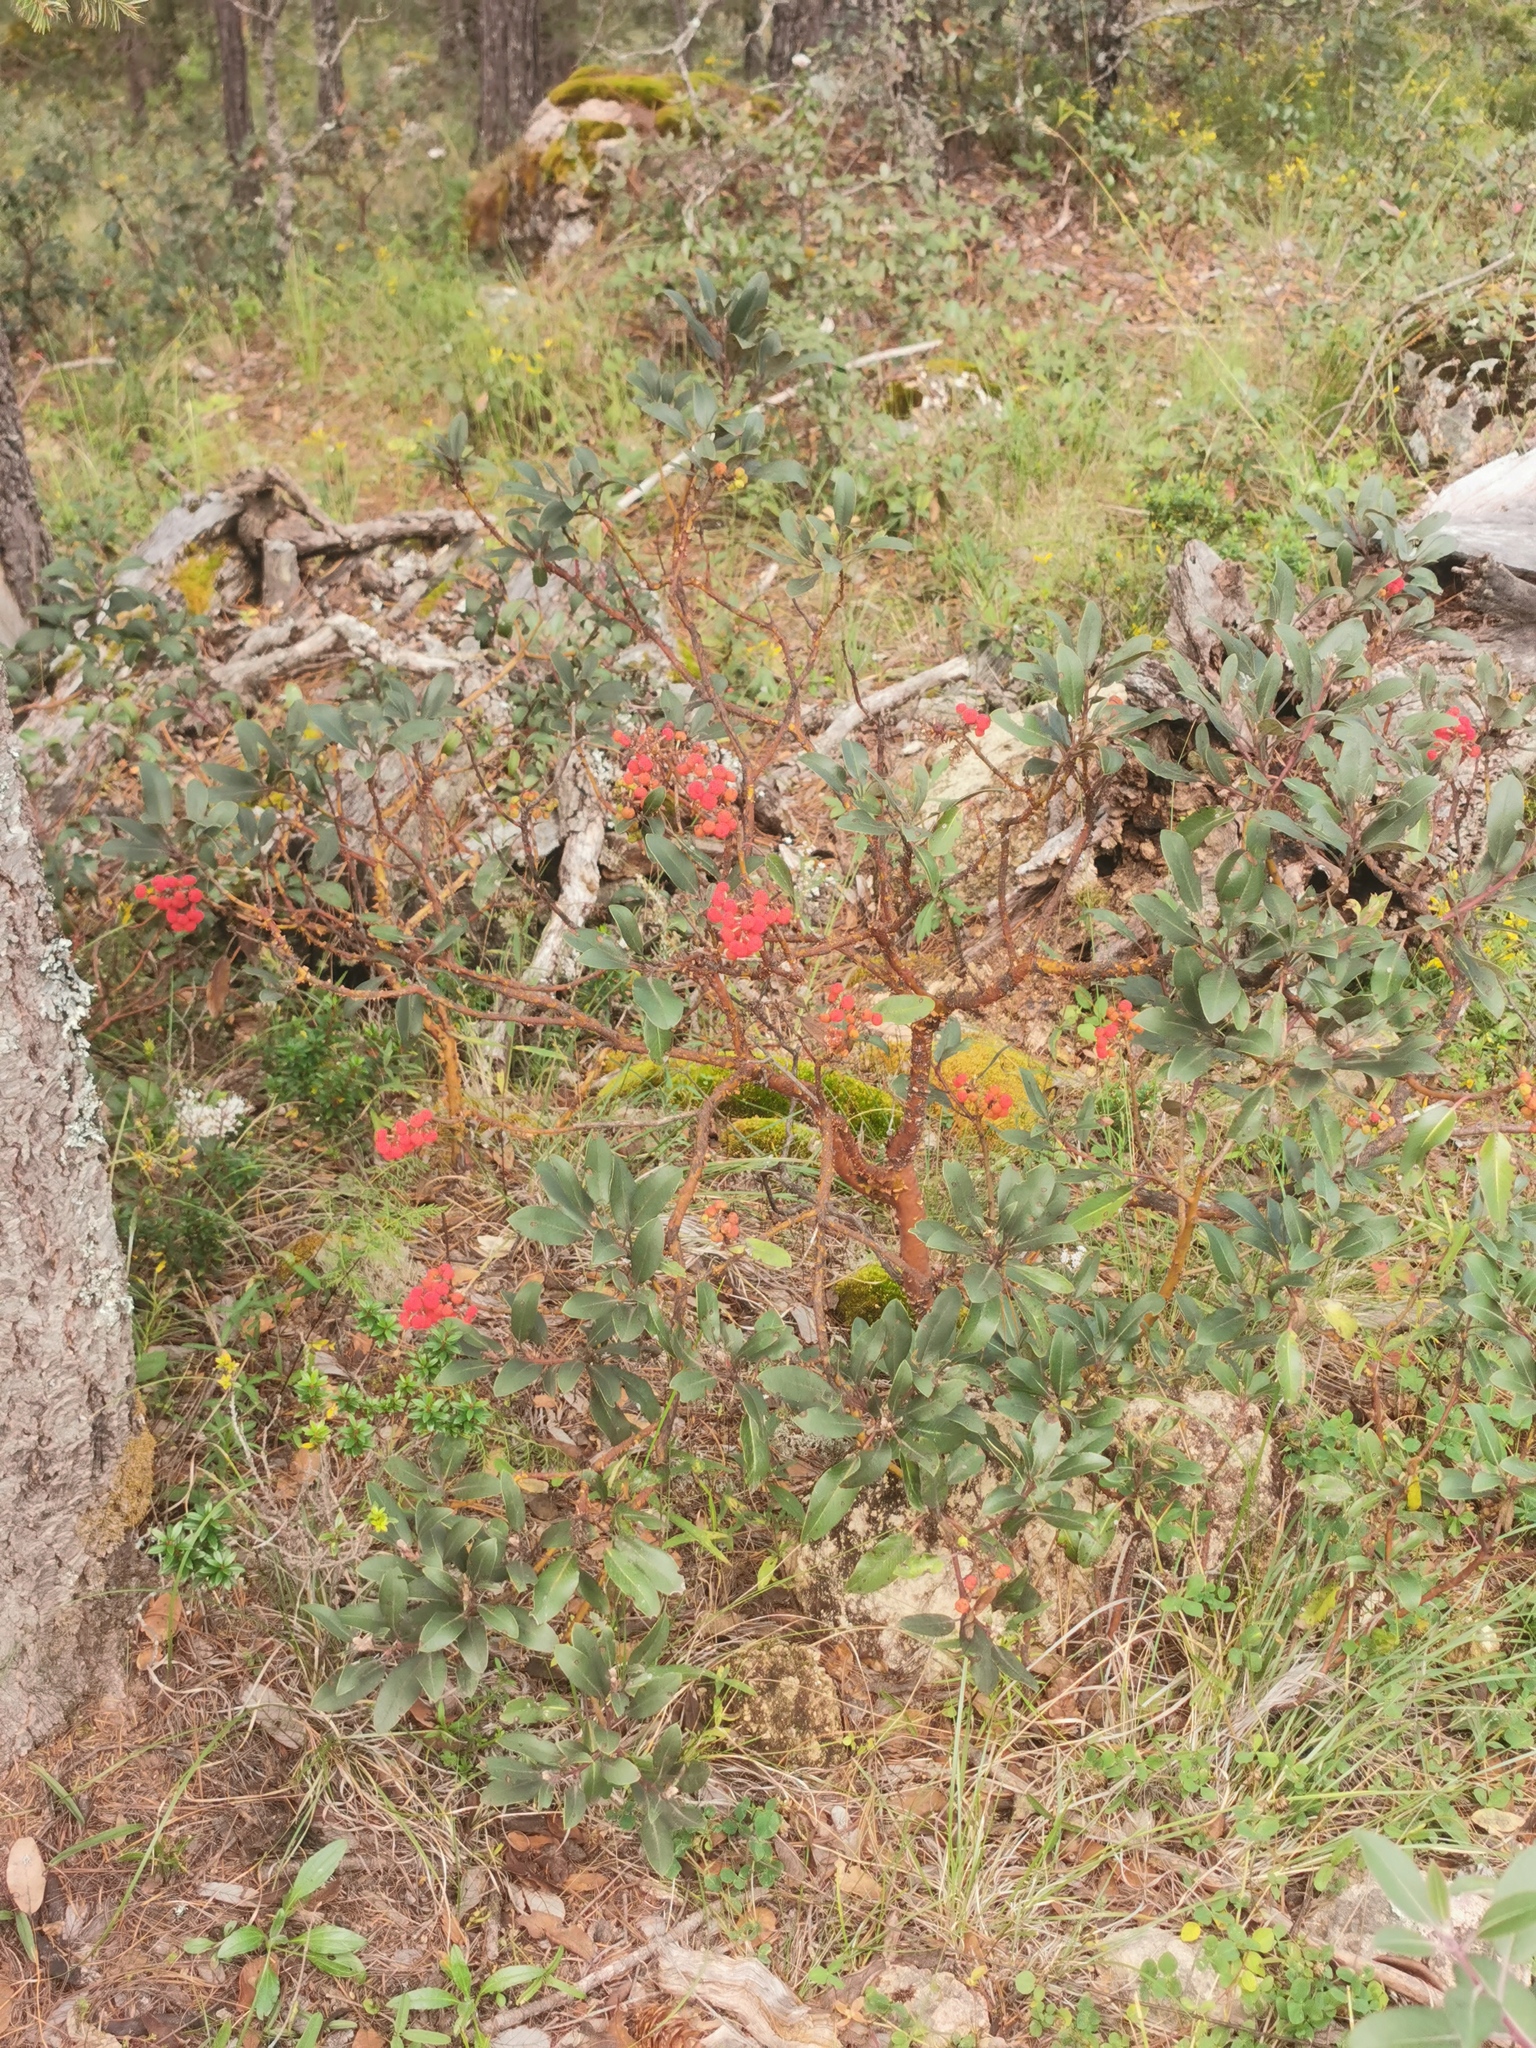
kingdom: Plantae
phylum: Tracheophyta
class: Magnoliopsida
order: Ericales
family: Ericaceae
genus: Arbutus
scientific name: Arbutus mollis
